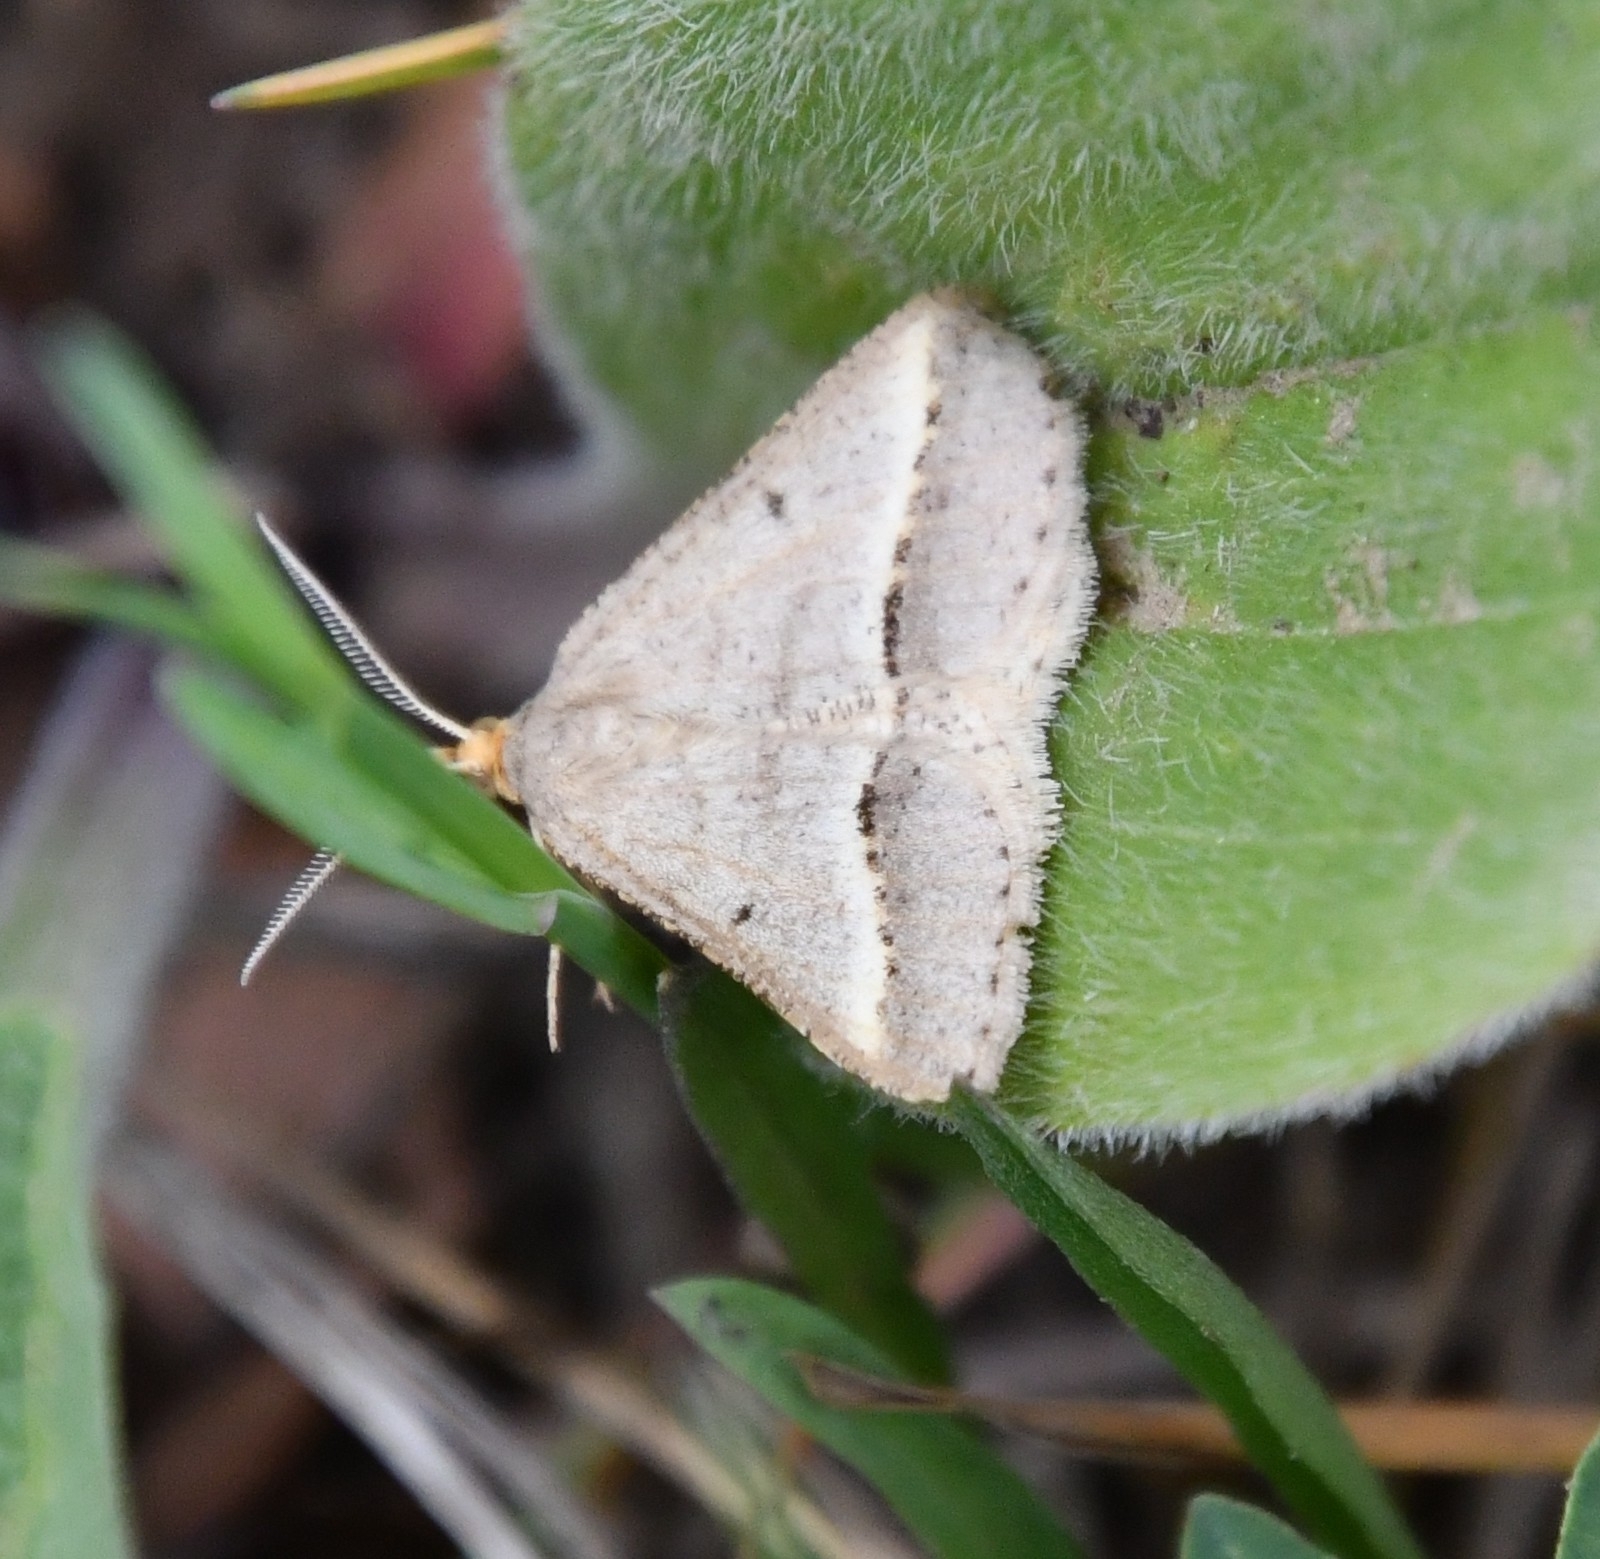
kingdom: Animalia
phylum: Arthropoda
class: Insecta
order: Lepidoptera
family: Geometridae
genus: Tephrina
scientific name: Tephrina arenacearia
